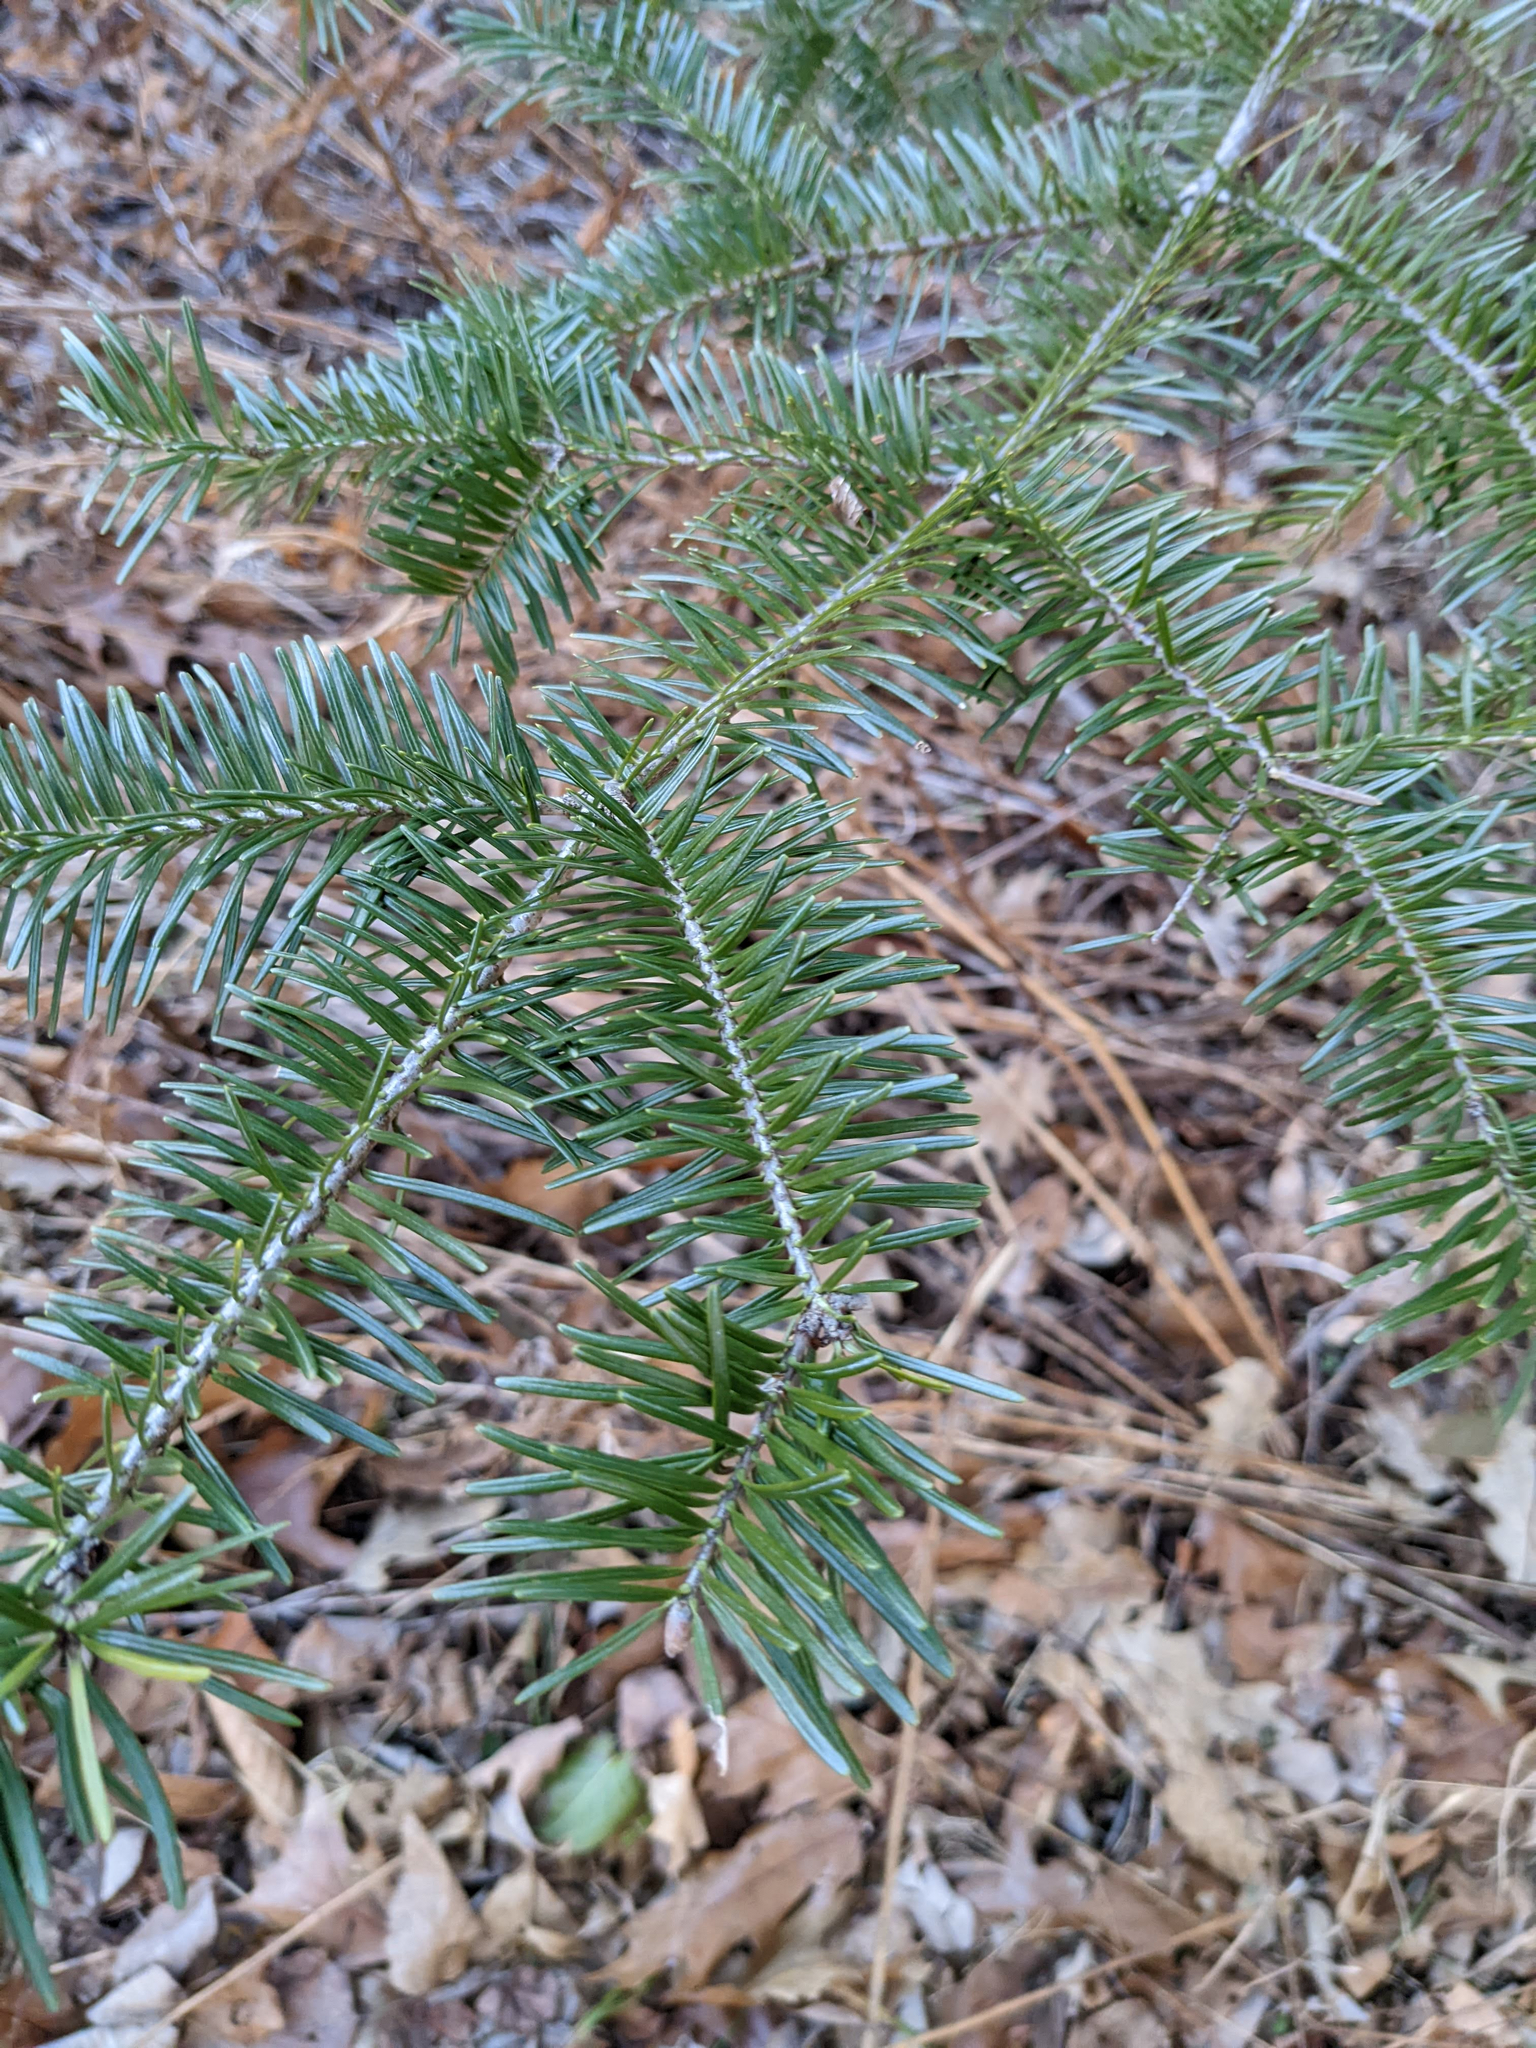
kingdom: Plantae
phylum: Tracheophyta
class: Pinopsida
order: Pinales
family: Pinaceae
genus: Abies
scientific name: Abies balsamea
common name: Balsam fir
